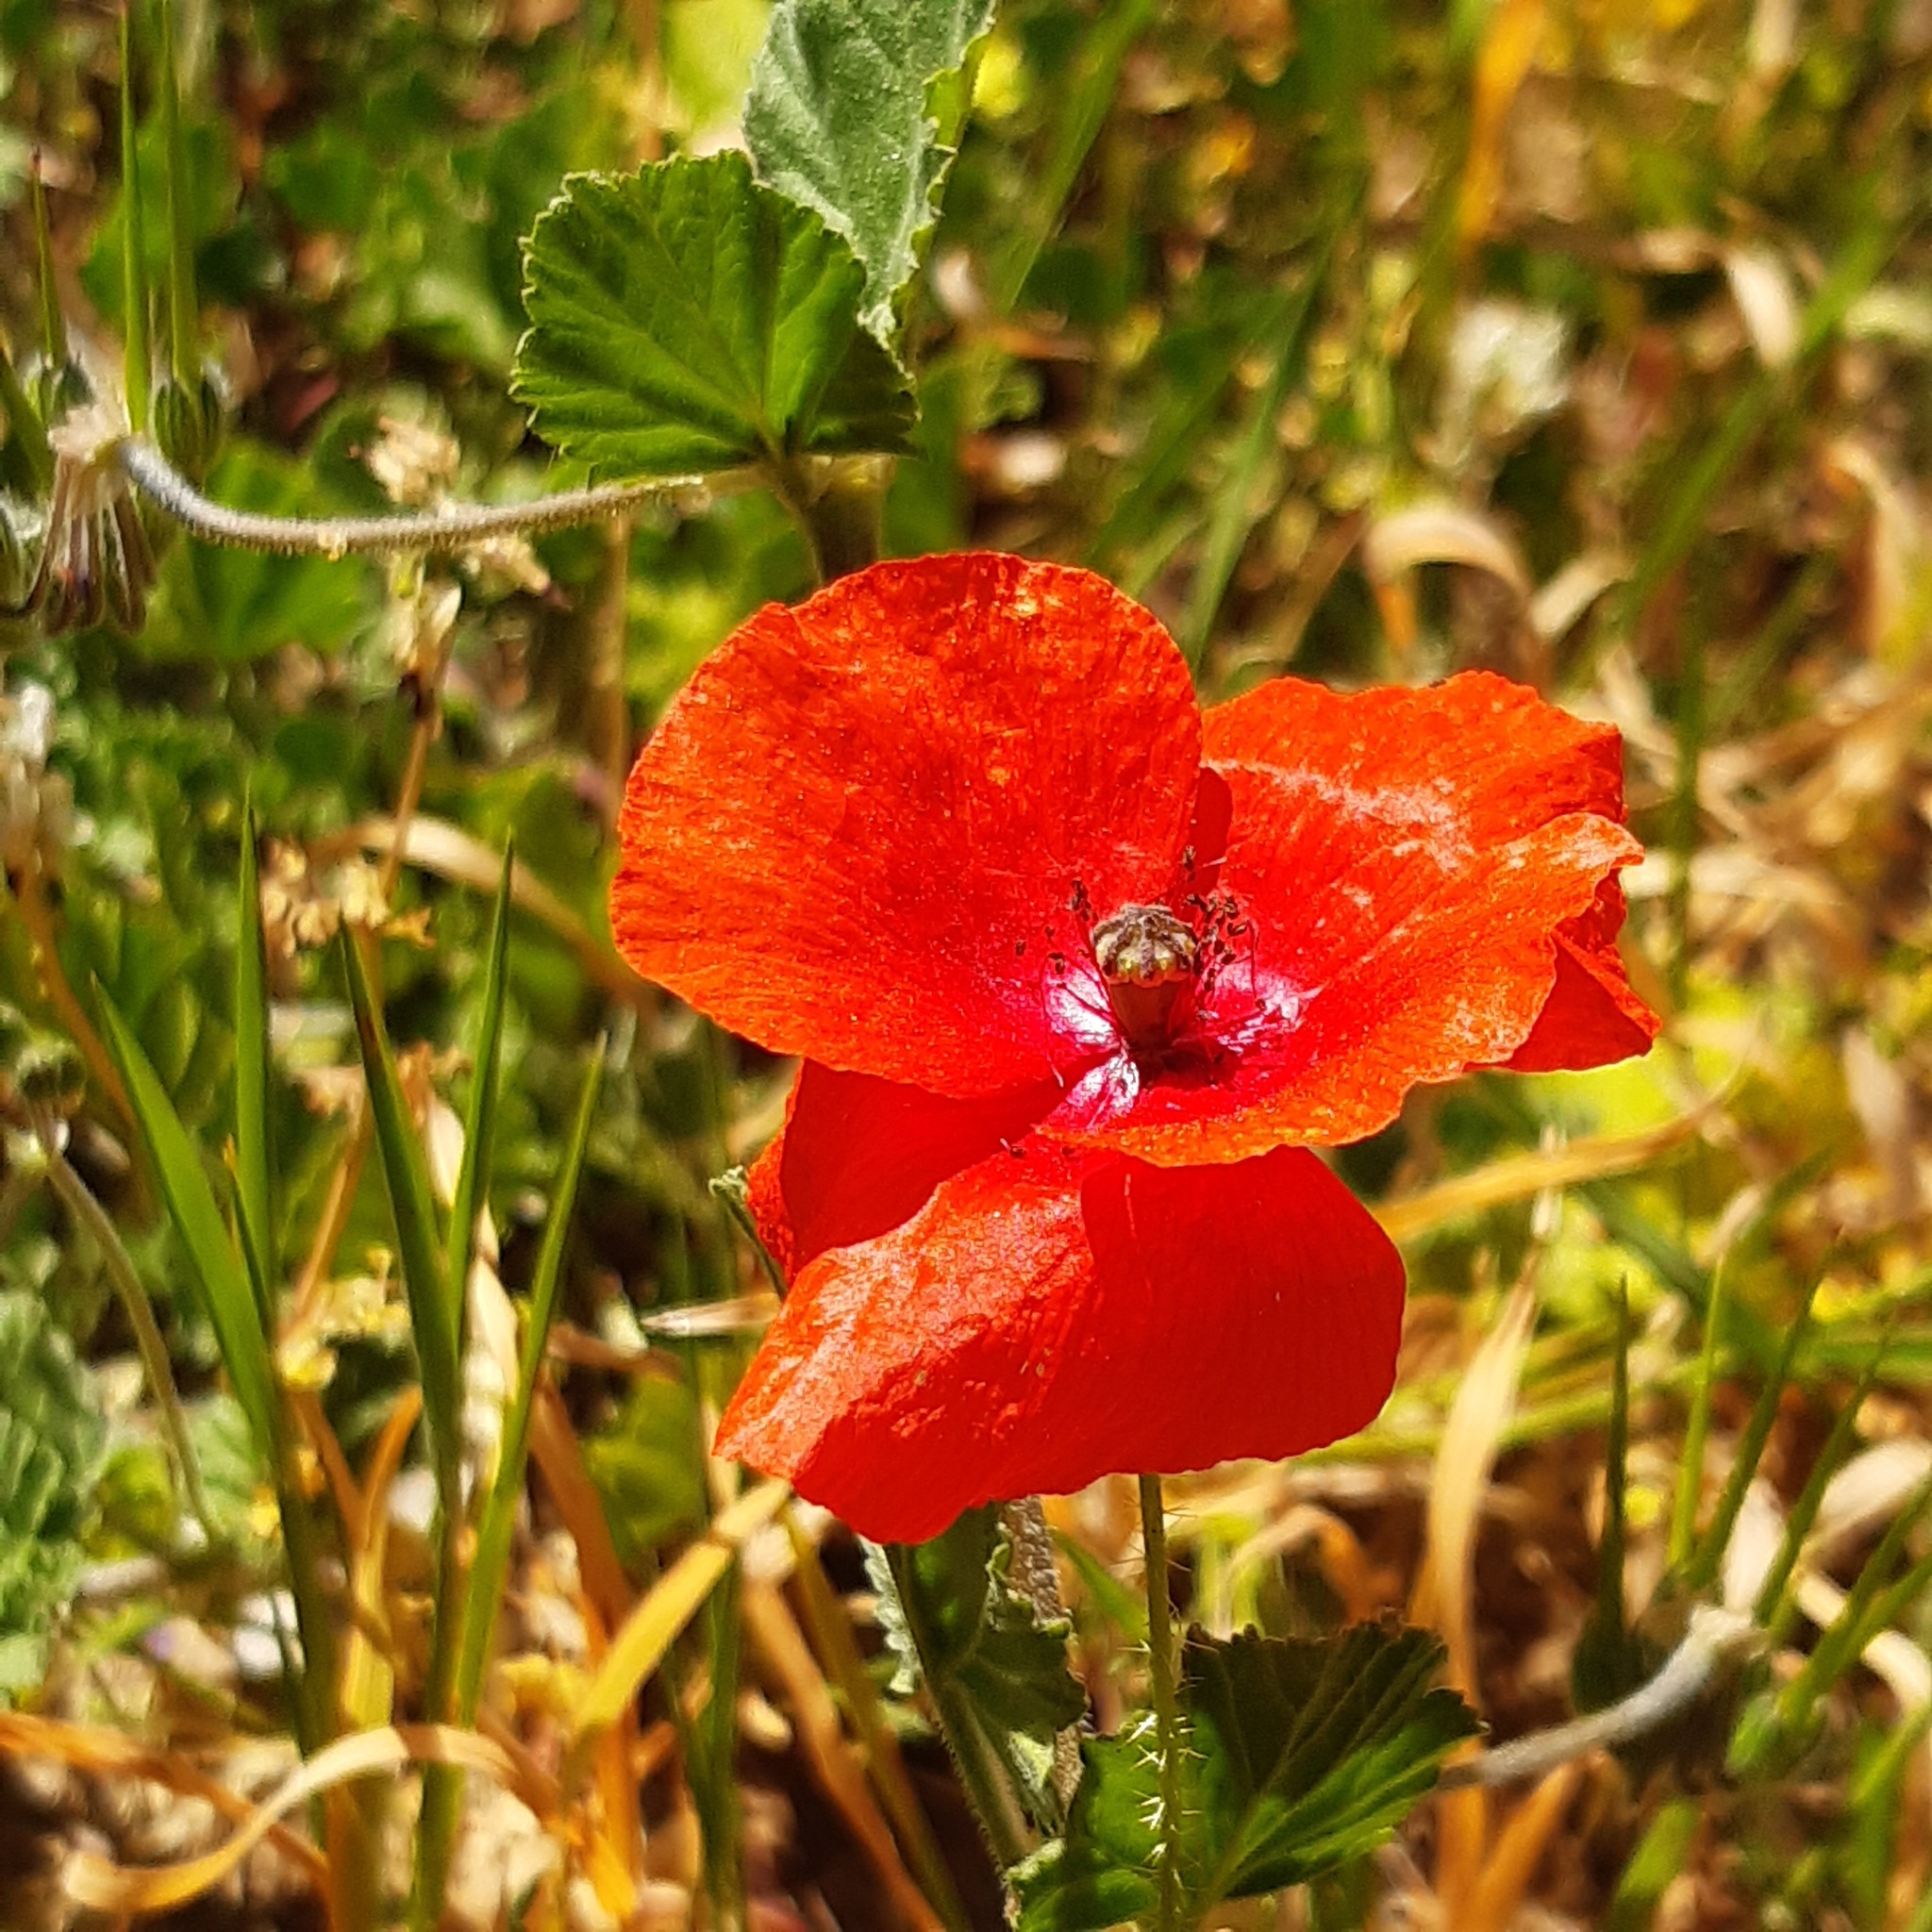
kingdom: Plantae
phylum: Tracheophyta
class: Magnoliopsida
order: Ranunculales
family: Papaveraceae
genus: Papaver
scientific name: Papaver rhoeas
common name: Corn poppy
